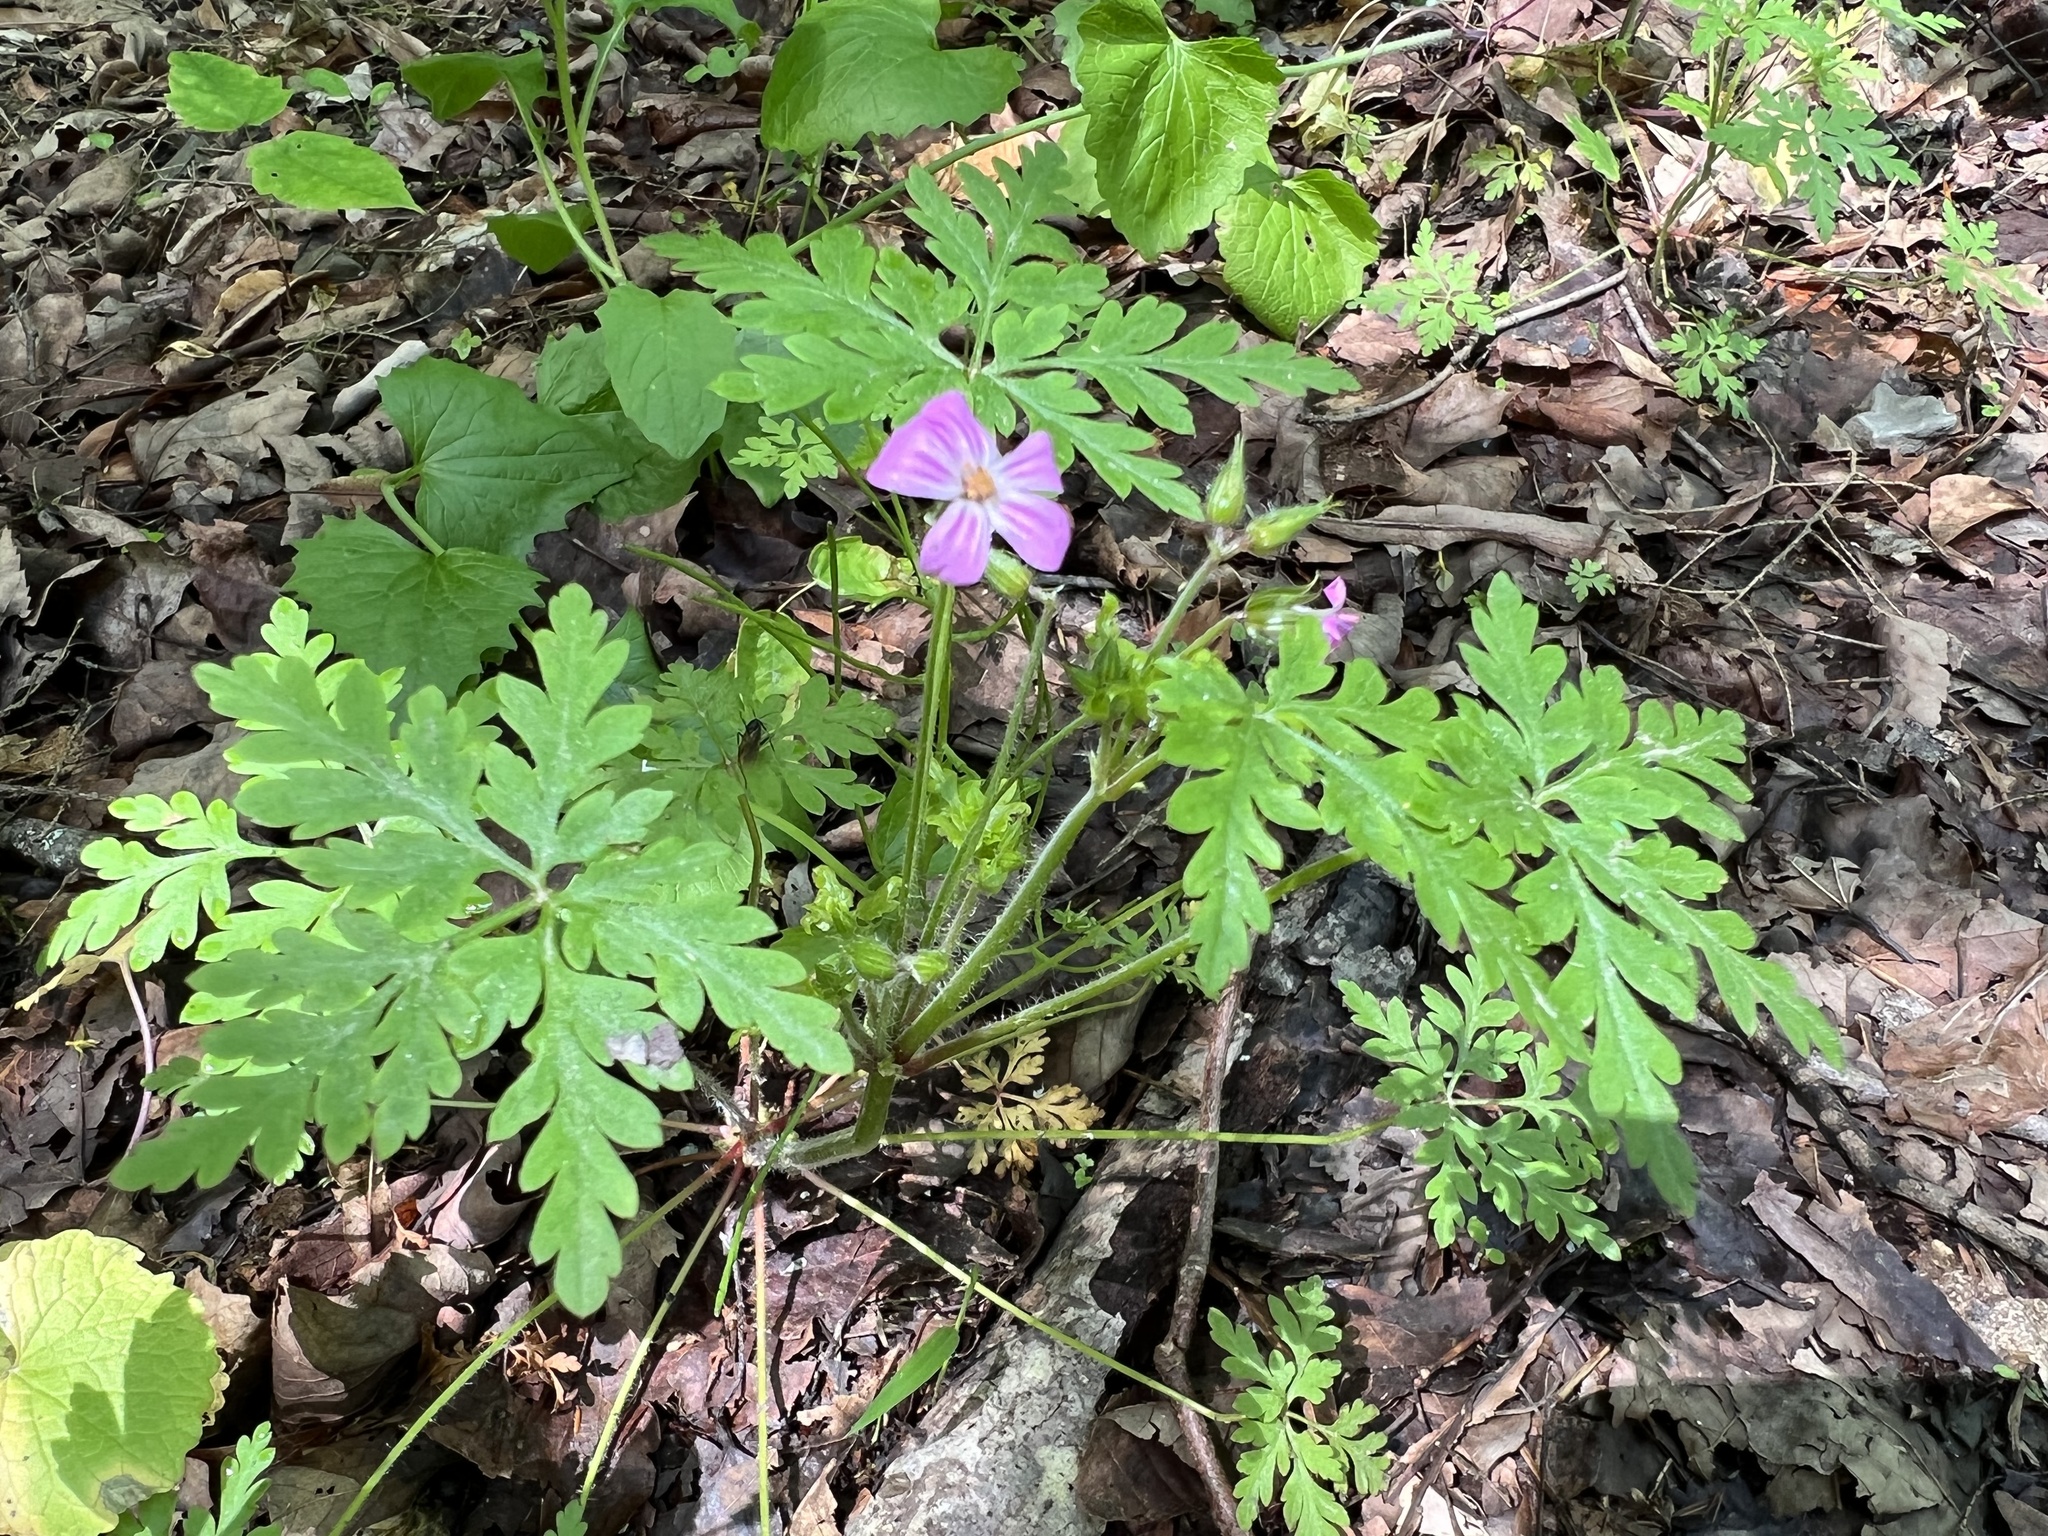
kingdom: Plantae
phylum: Tracheophyta
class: Magnoliopsida
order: Geraniales
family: Geraniaceae
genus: Geranium
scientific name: Geranium robertianum
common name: Herb-robert
